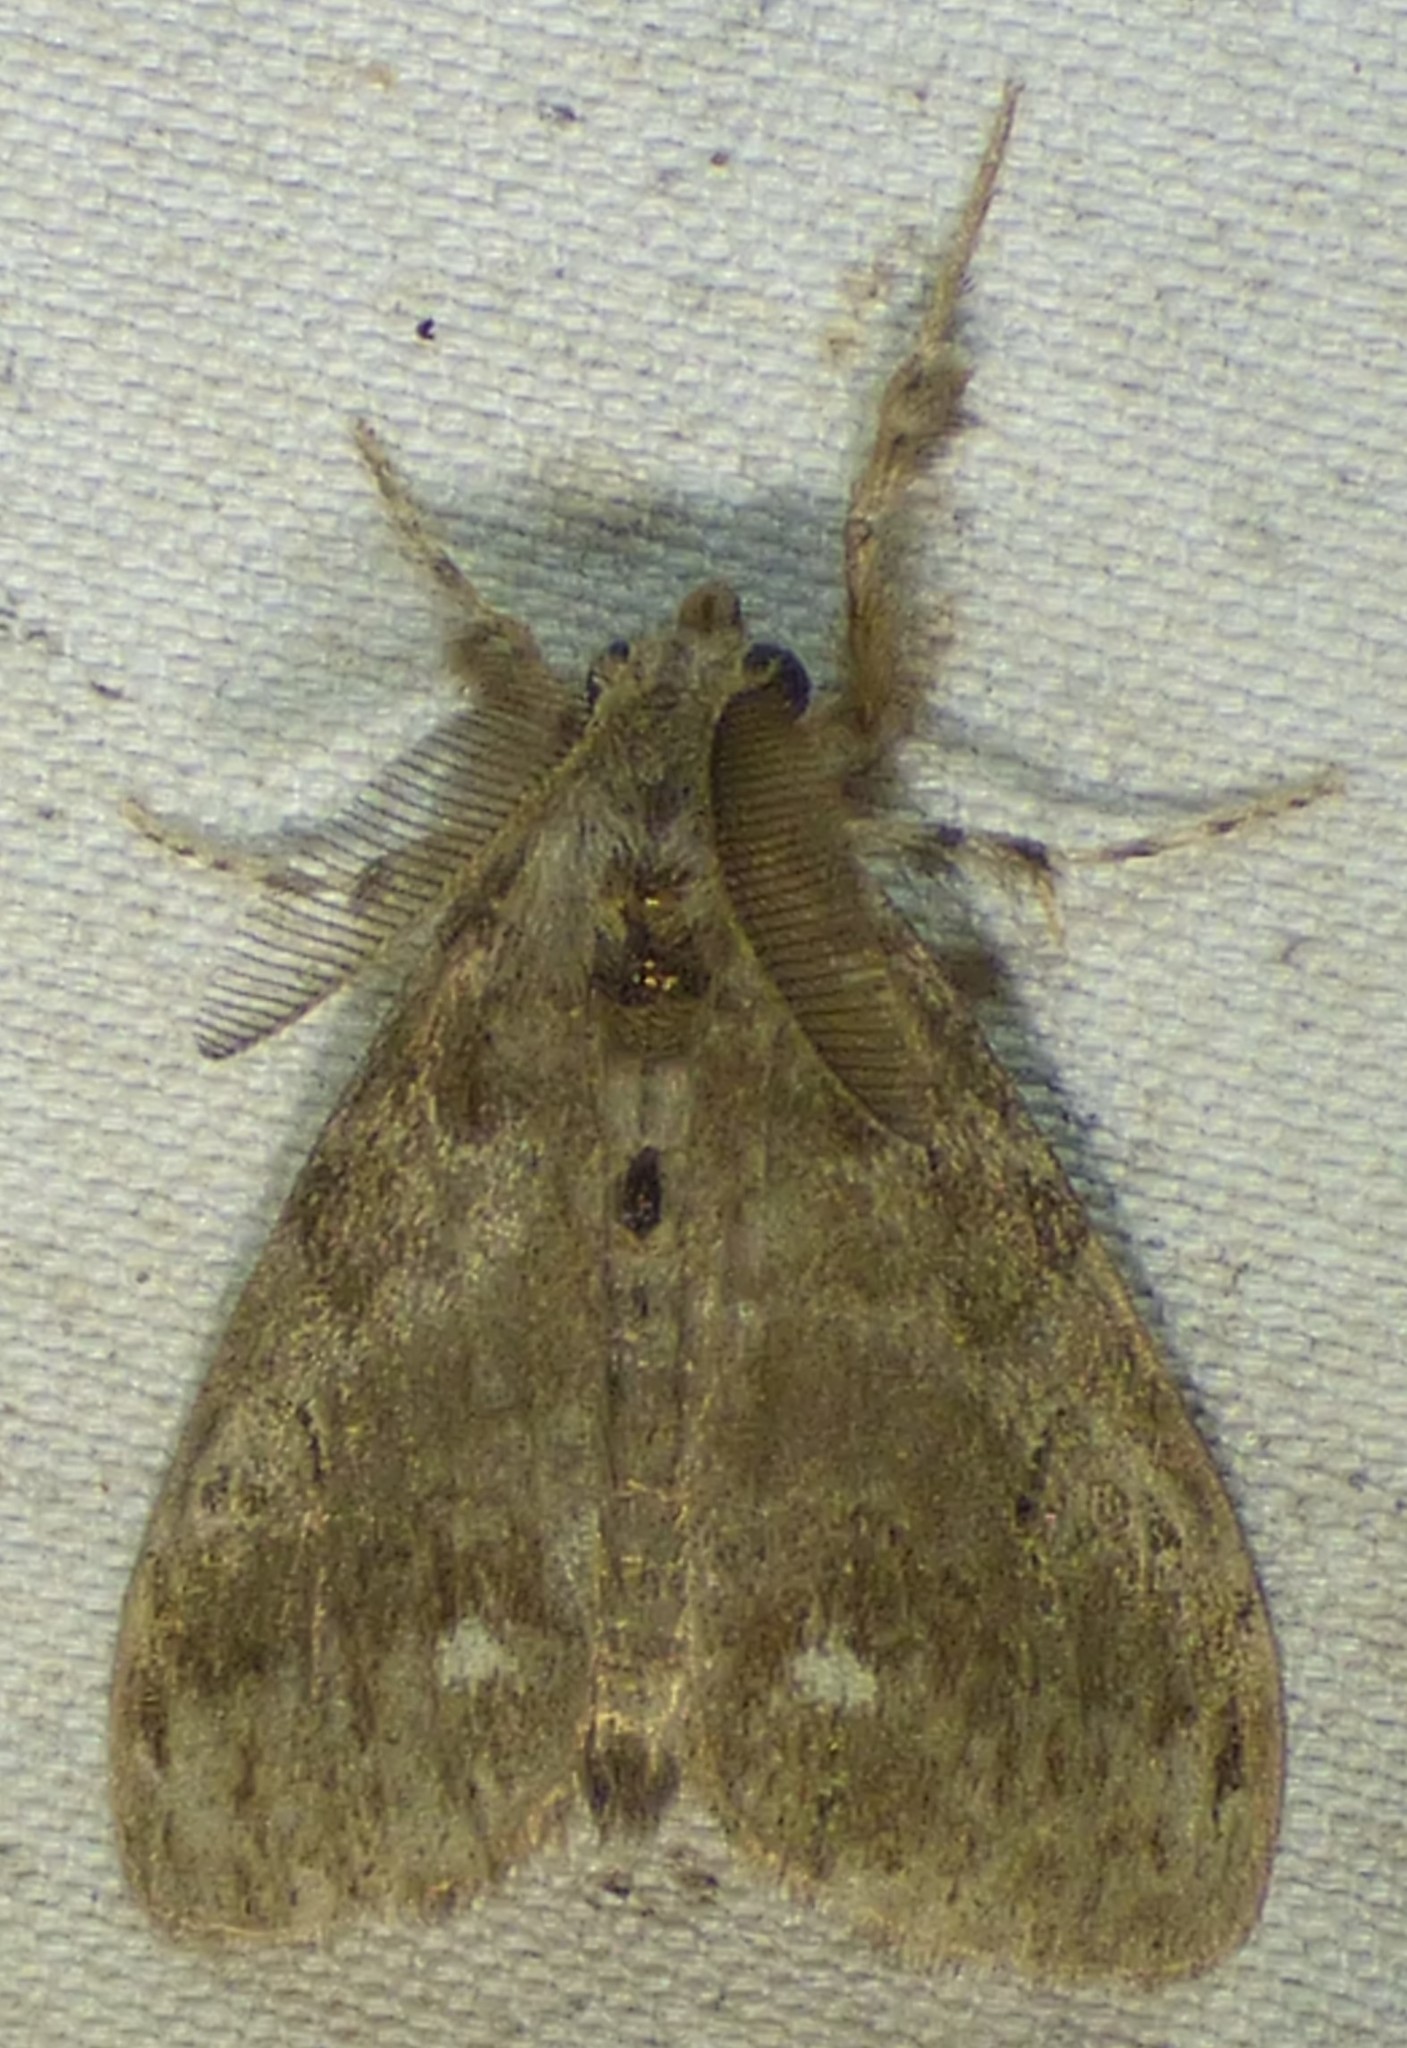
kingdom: Animalia
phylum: Arthropoda
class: Insecta
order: Lepidoptera
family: Erebidae
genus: Orgyia
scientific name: Orgyia leucostigma
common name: White-marked tussock moth
